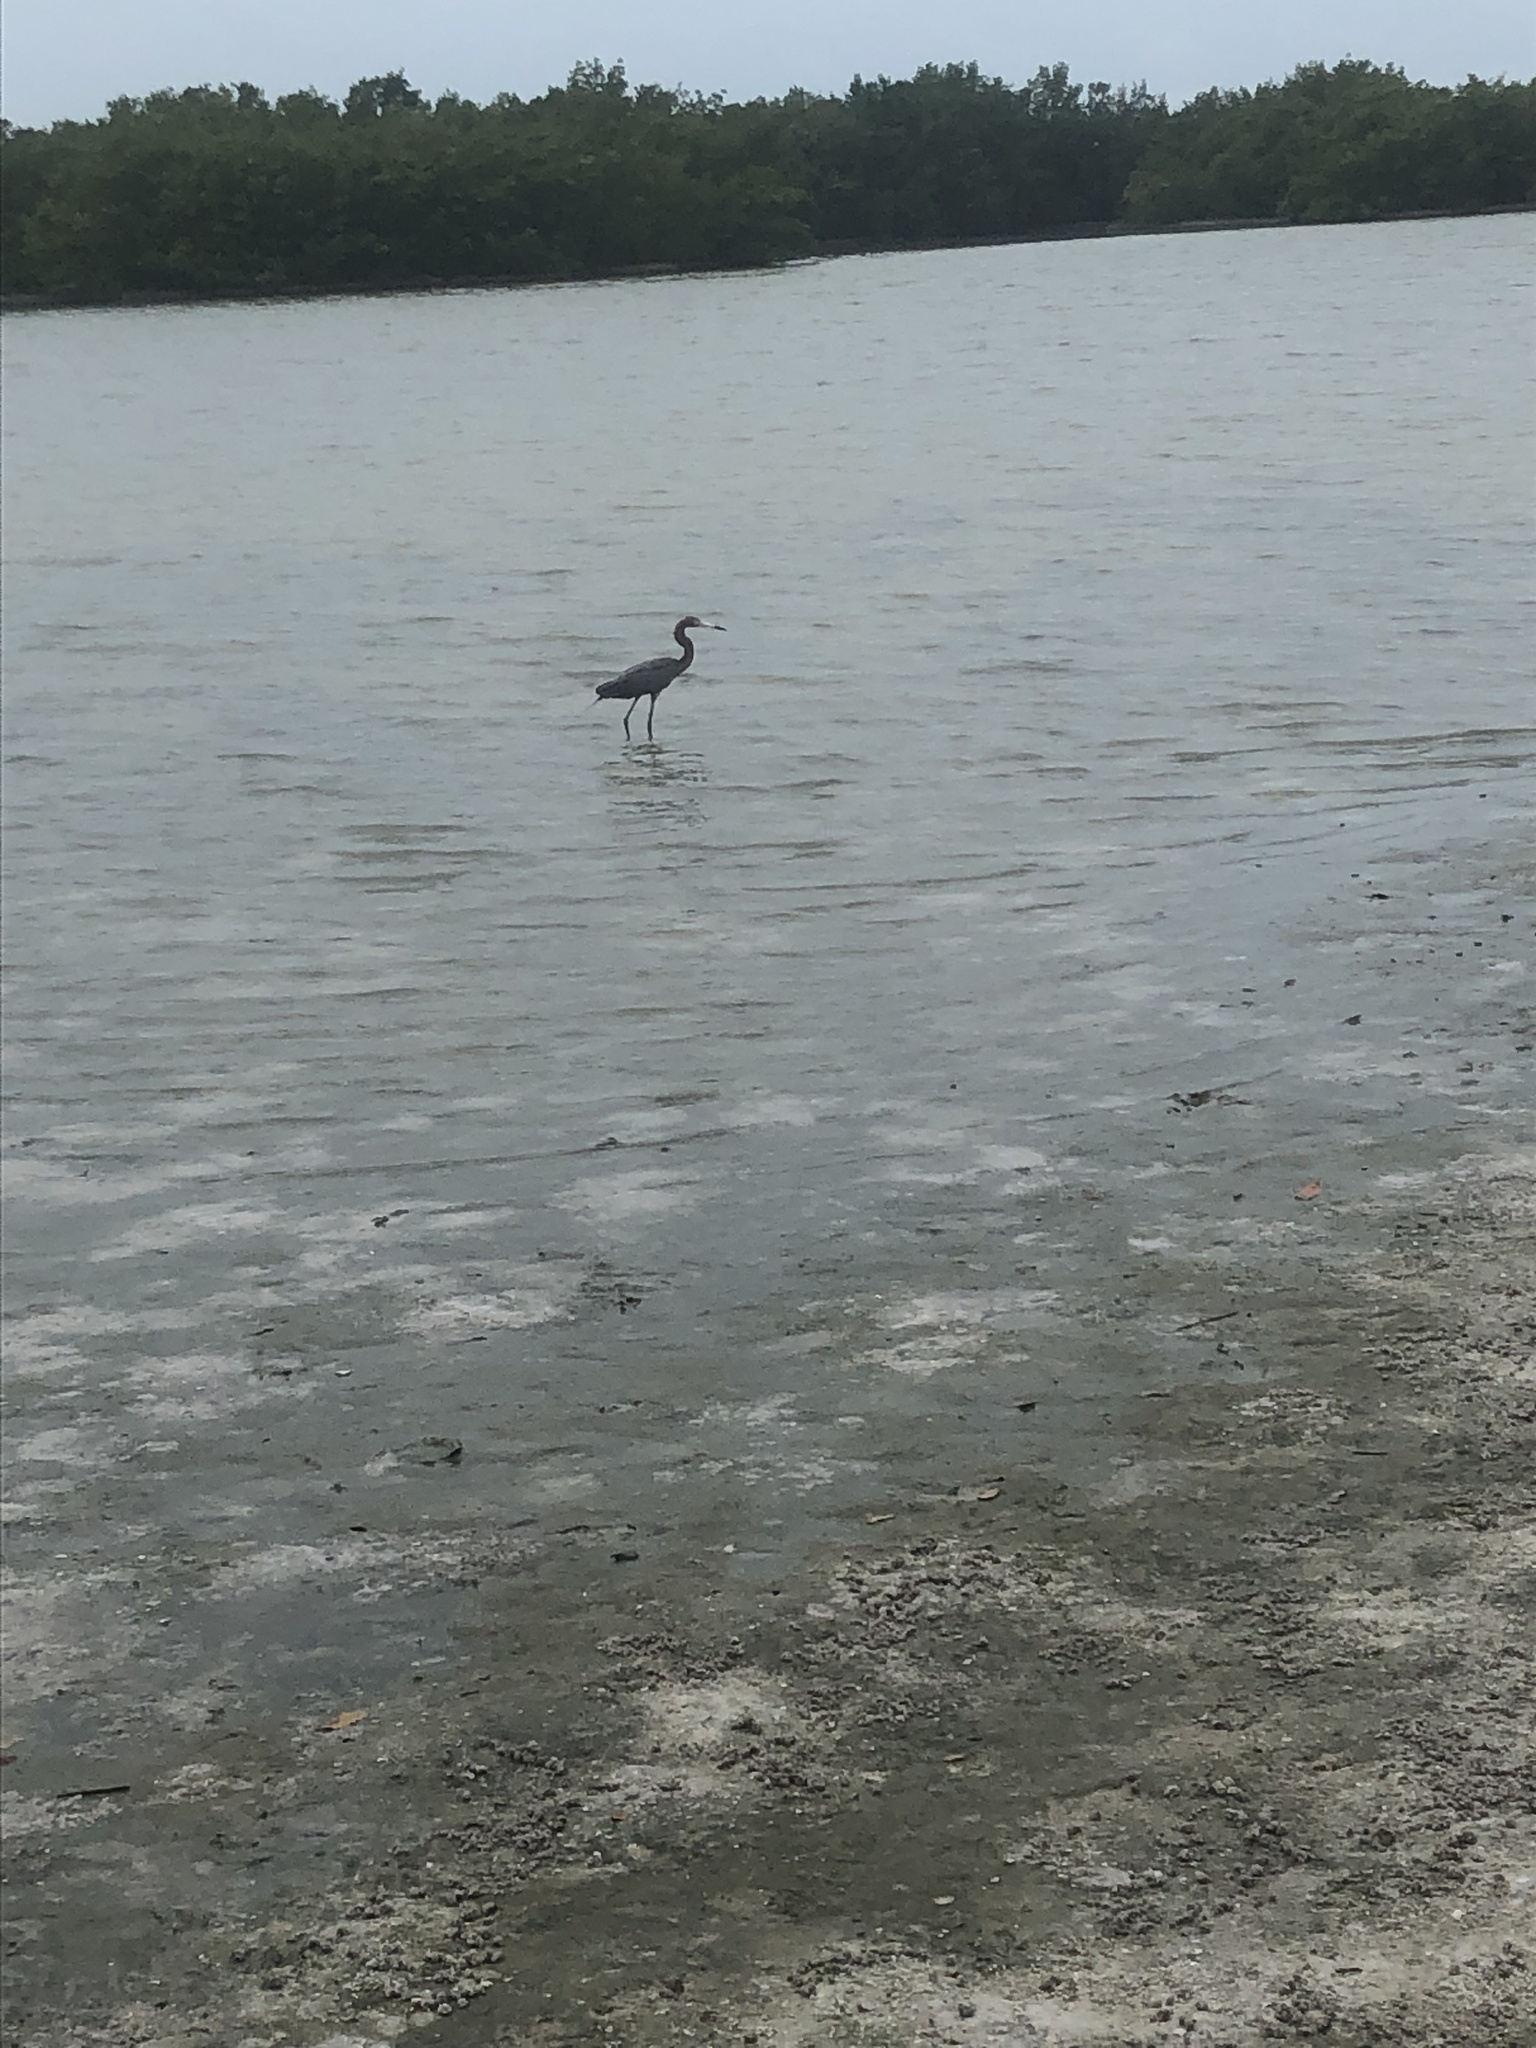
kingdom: Animalia
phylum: Chordata
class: Aves
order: Pelecaniformes
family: Ardeidae
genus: Egretta
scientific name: Egretta rufescens
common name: Reddish egret
